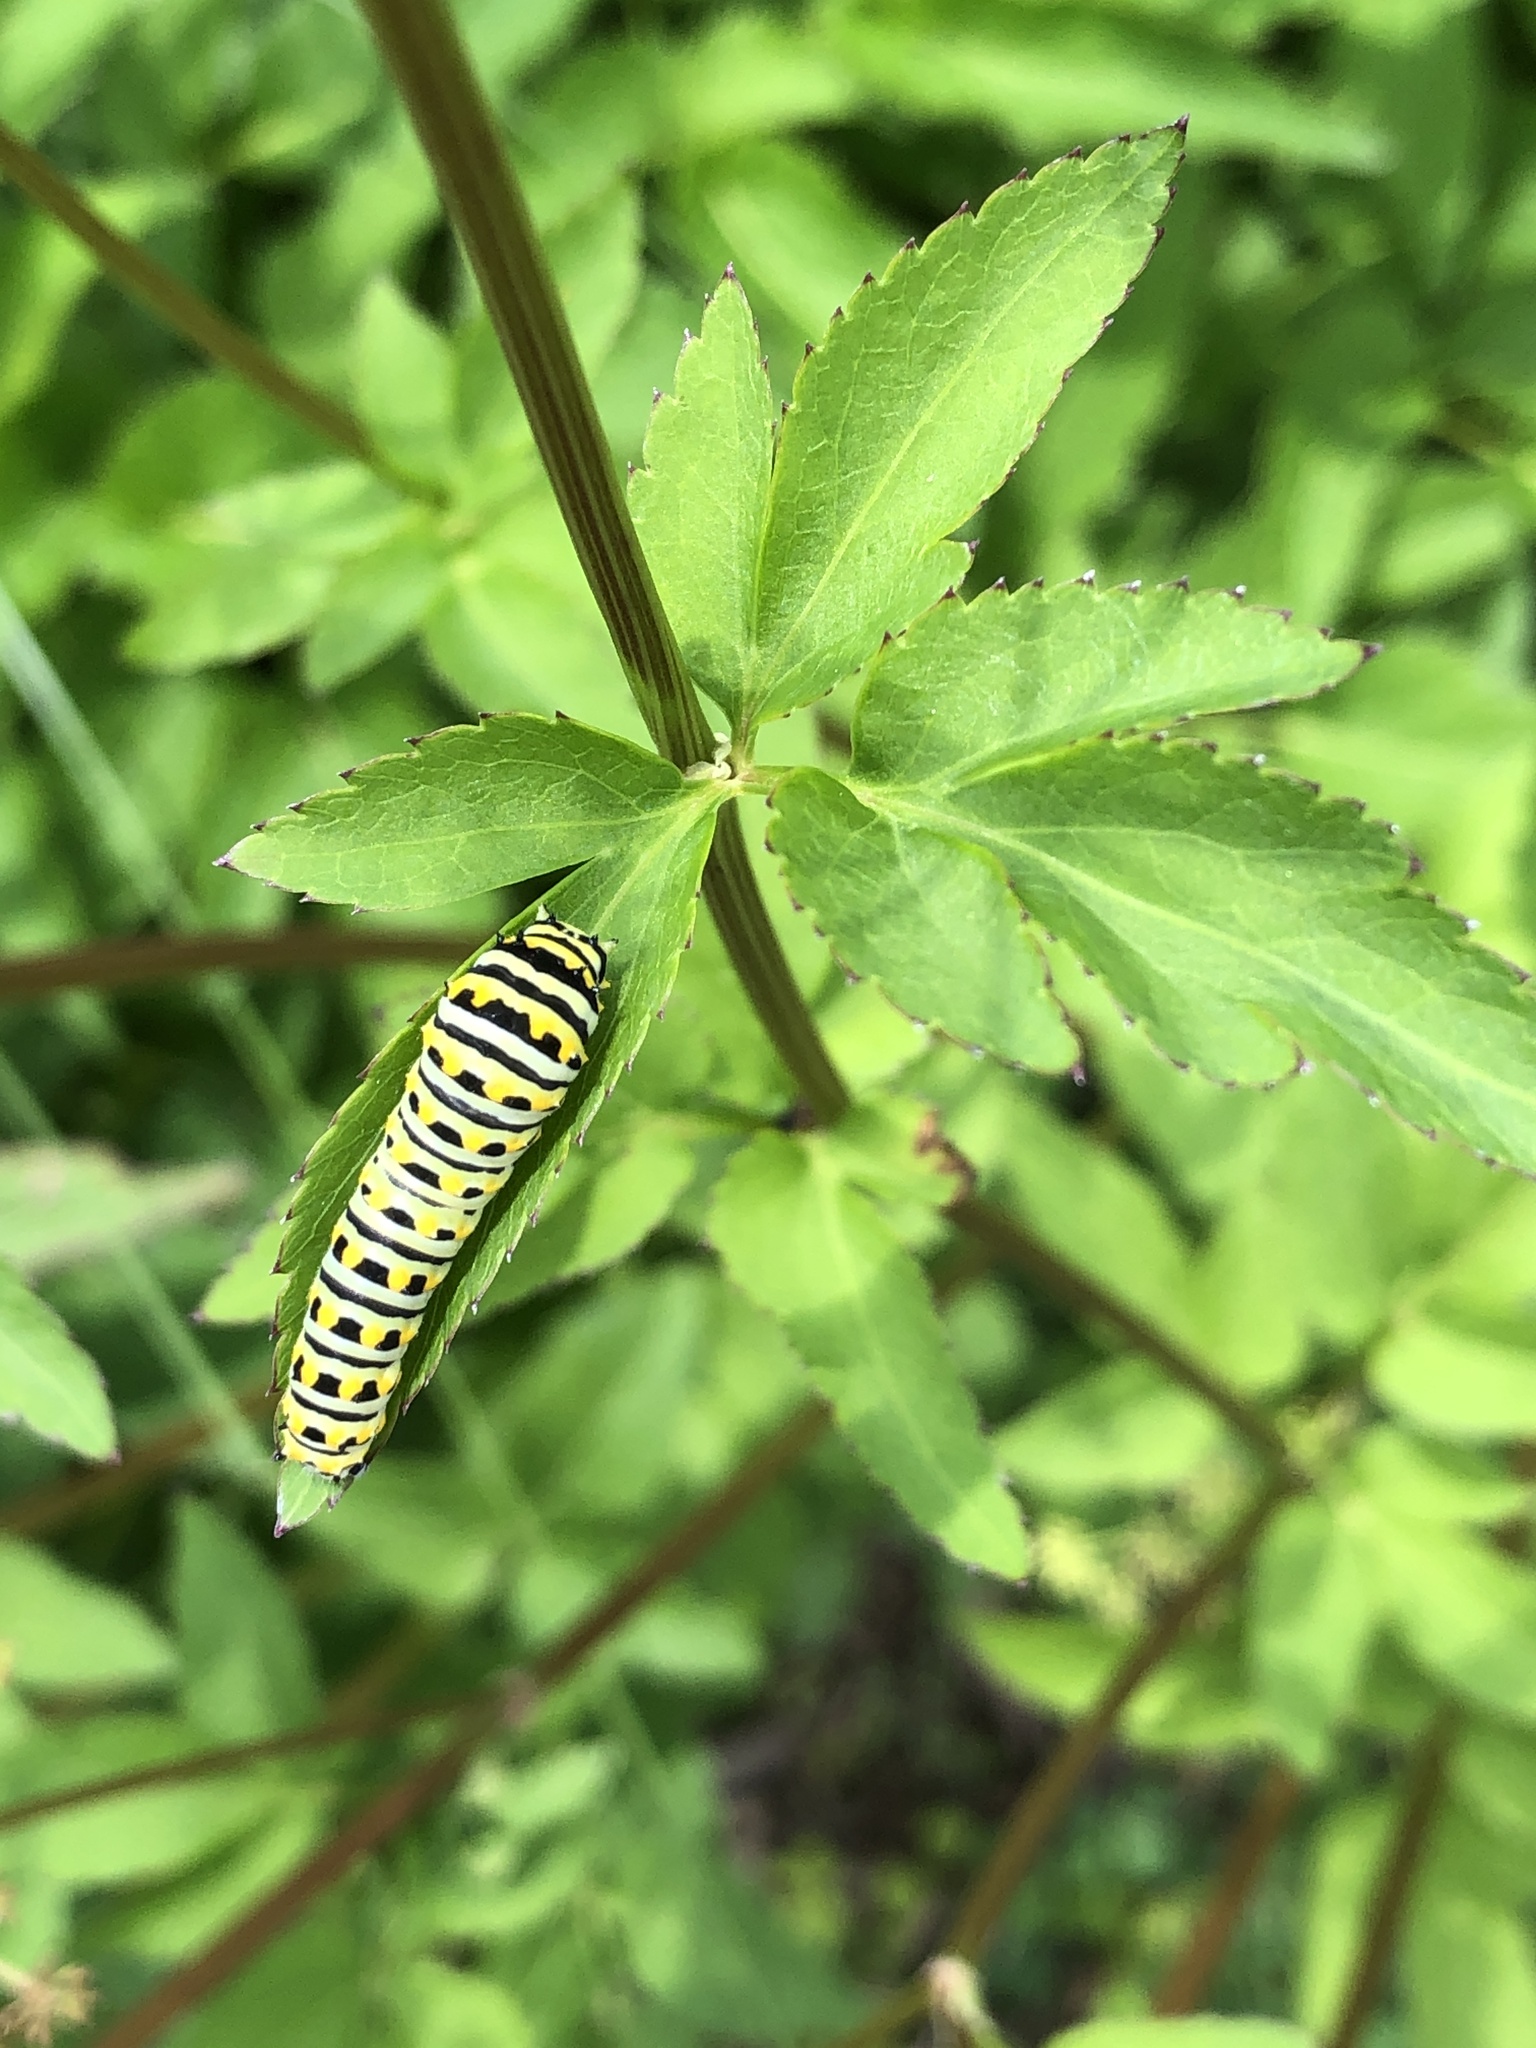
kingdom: Animalia
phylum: Arthropoda
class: Insecta
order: Lepidoptera
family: Papilionidae
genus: Papilio
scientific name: Papilio polyxenes
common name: Black swallowtail
